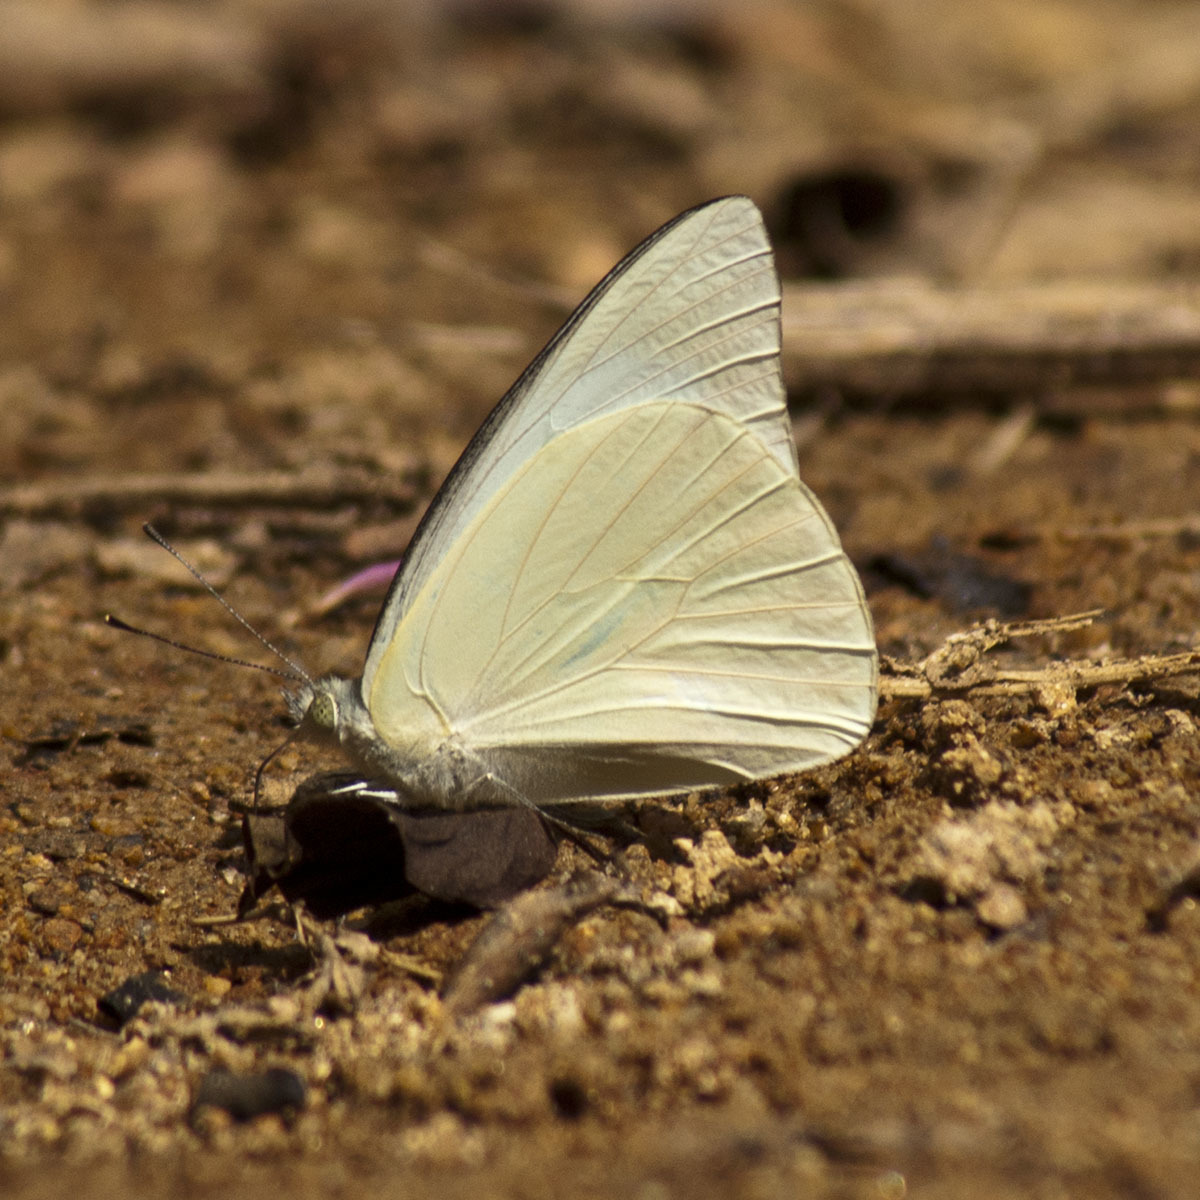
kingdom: Animalia
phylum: Arthropoda
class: Insecta
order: Lepidoptera
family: Pieridae
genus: Appias
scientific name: Appias albina
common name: Common albatross
